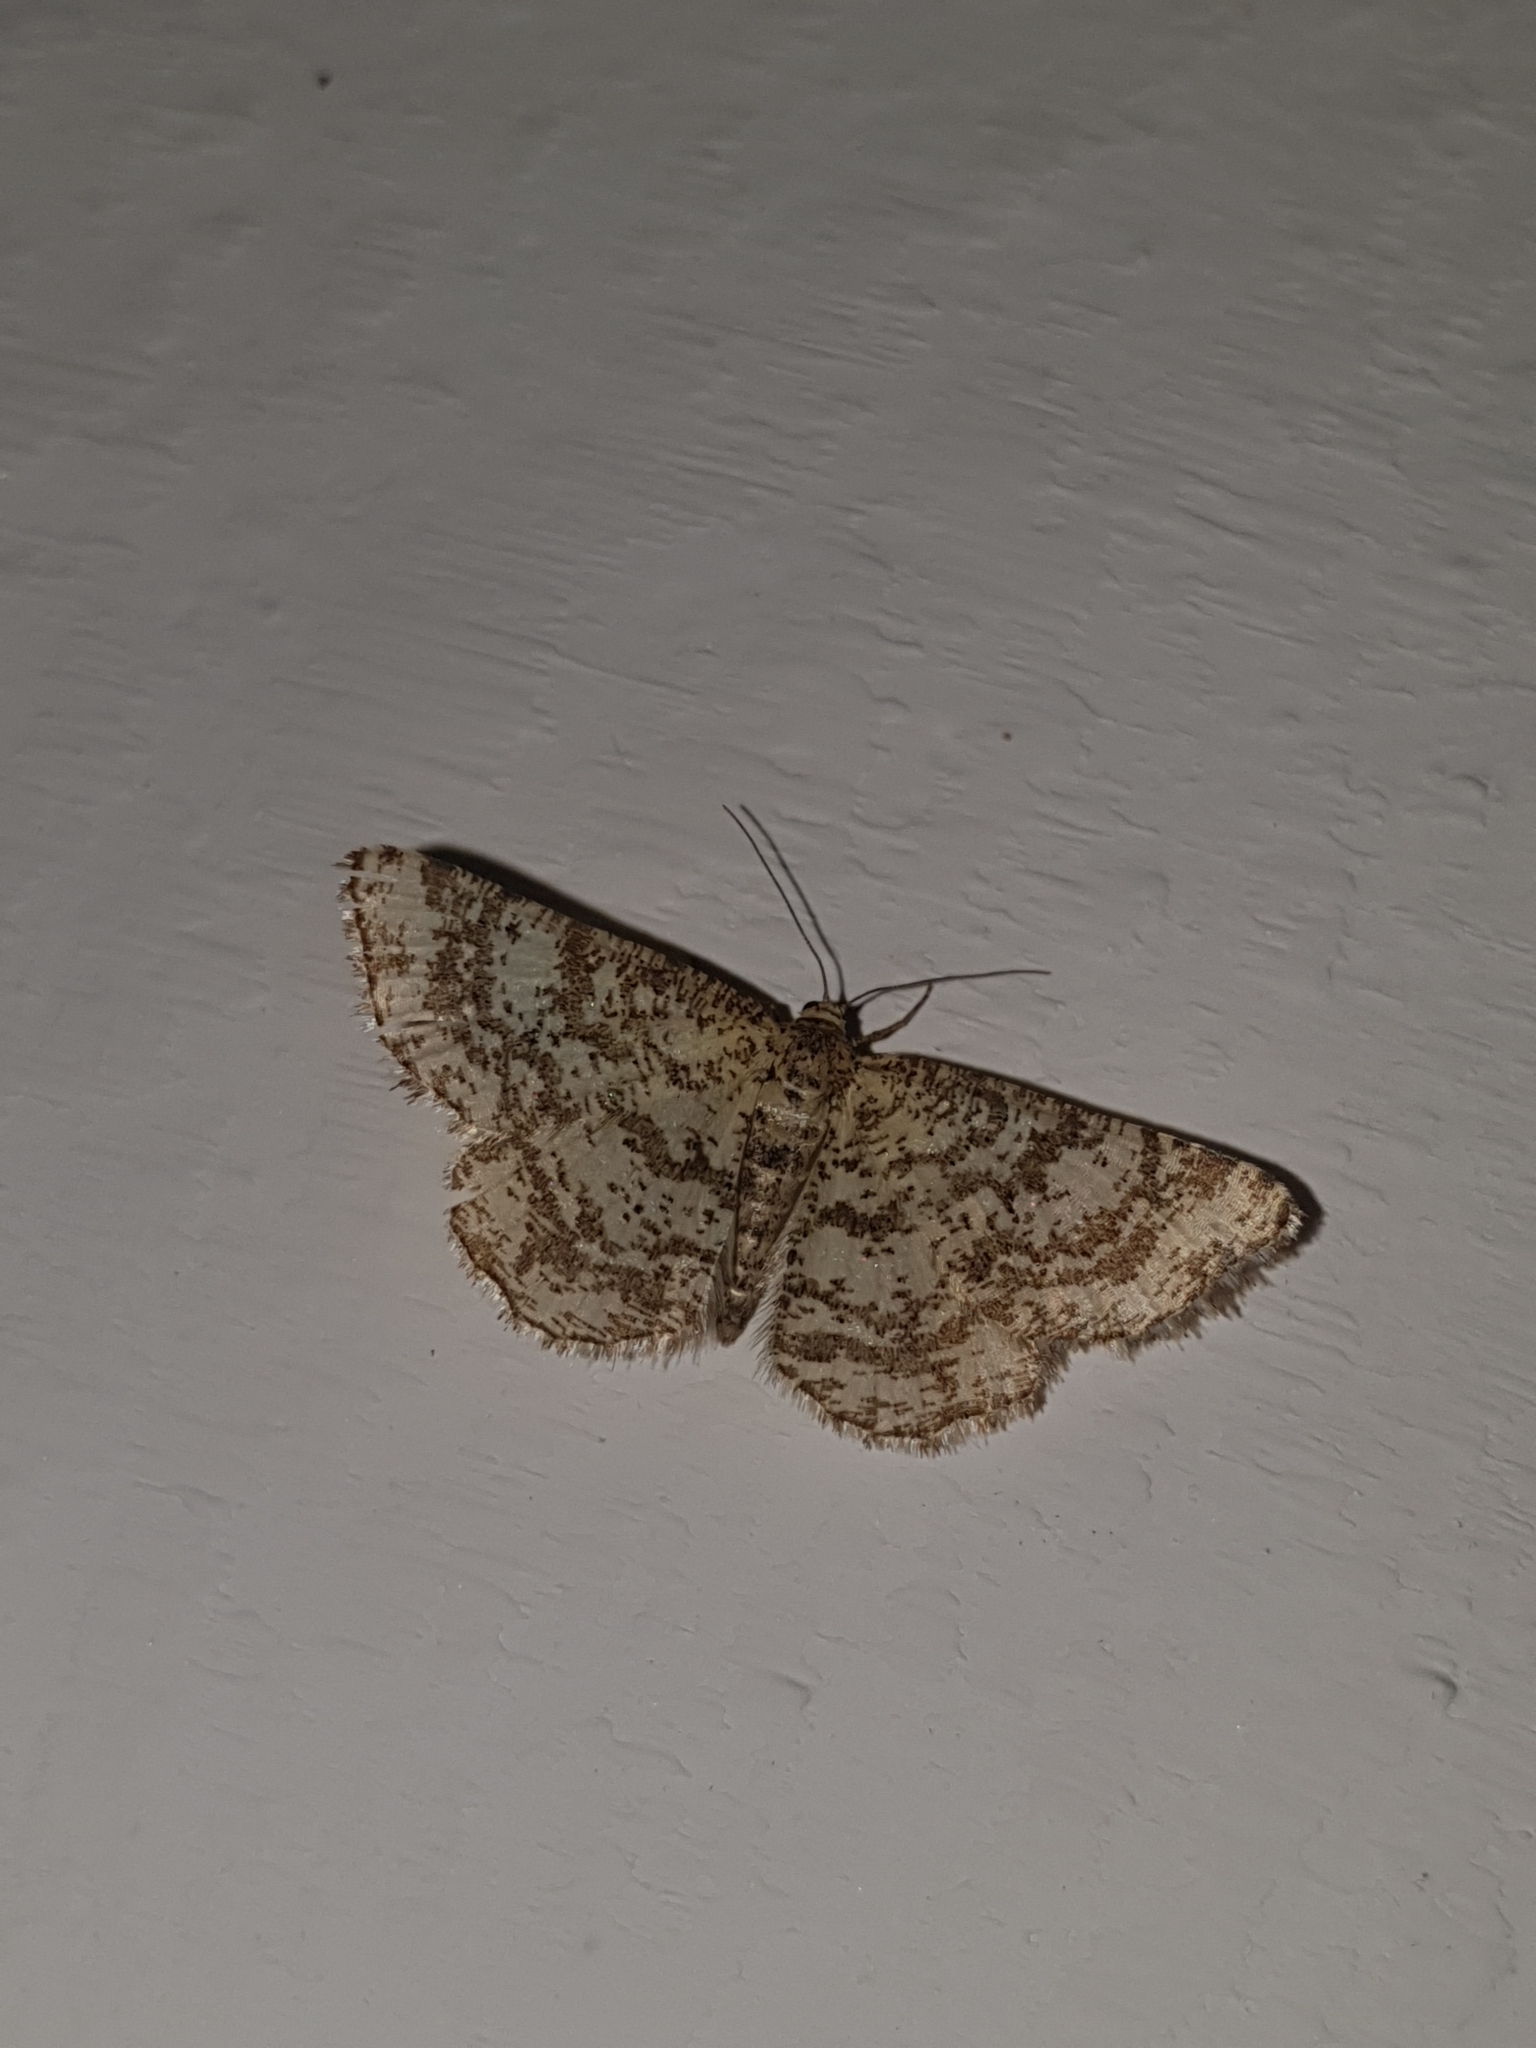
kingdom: Animalia
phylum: Arthropoda
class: Insecta
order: Lepidoptera
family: Geometridae
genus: Heliomata
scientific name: Heliomata glarearia
